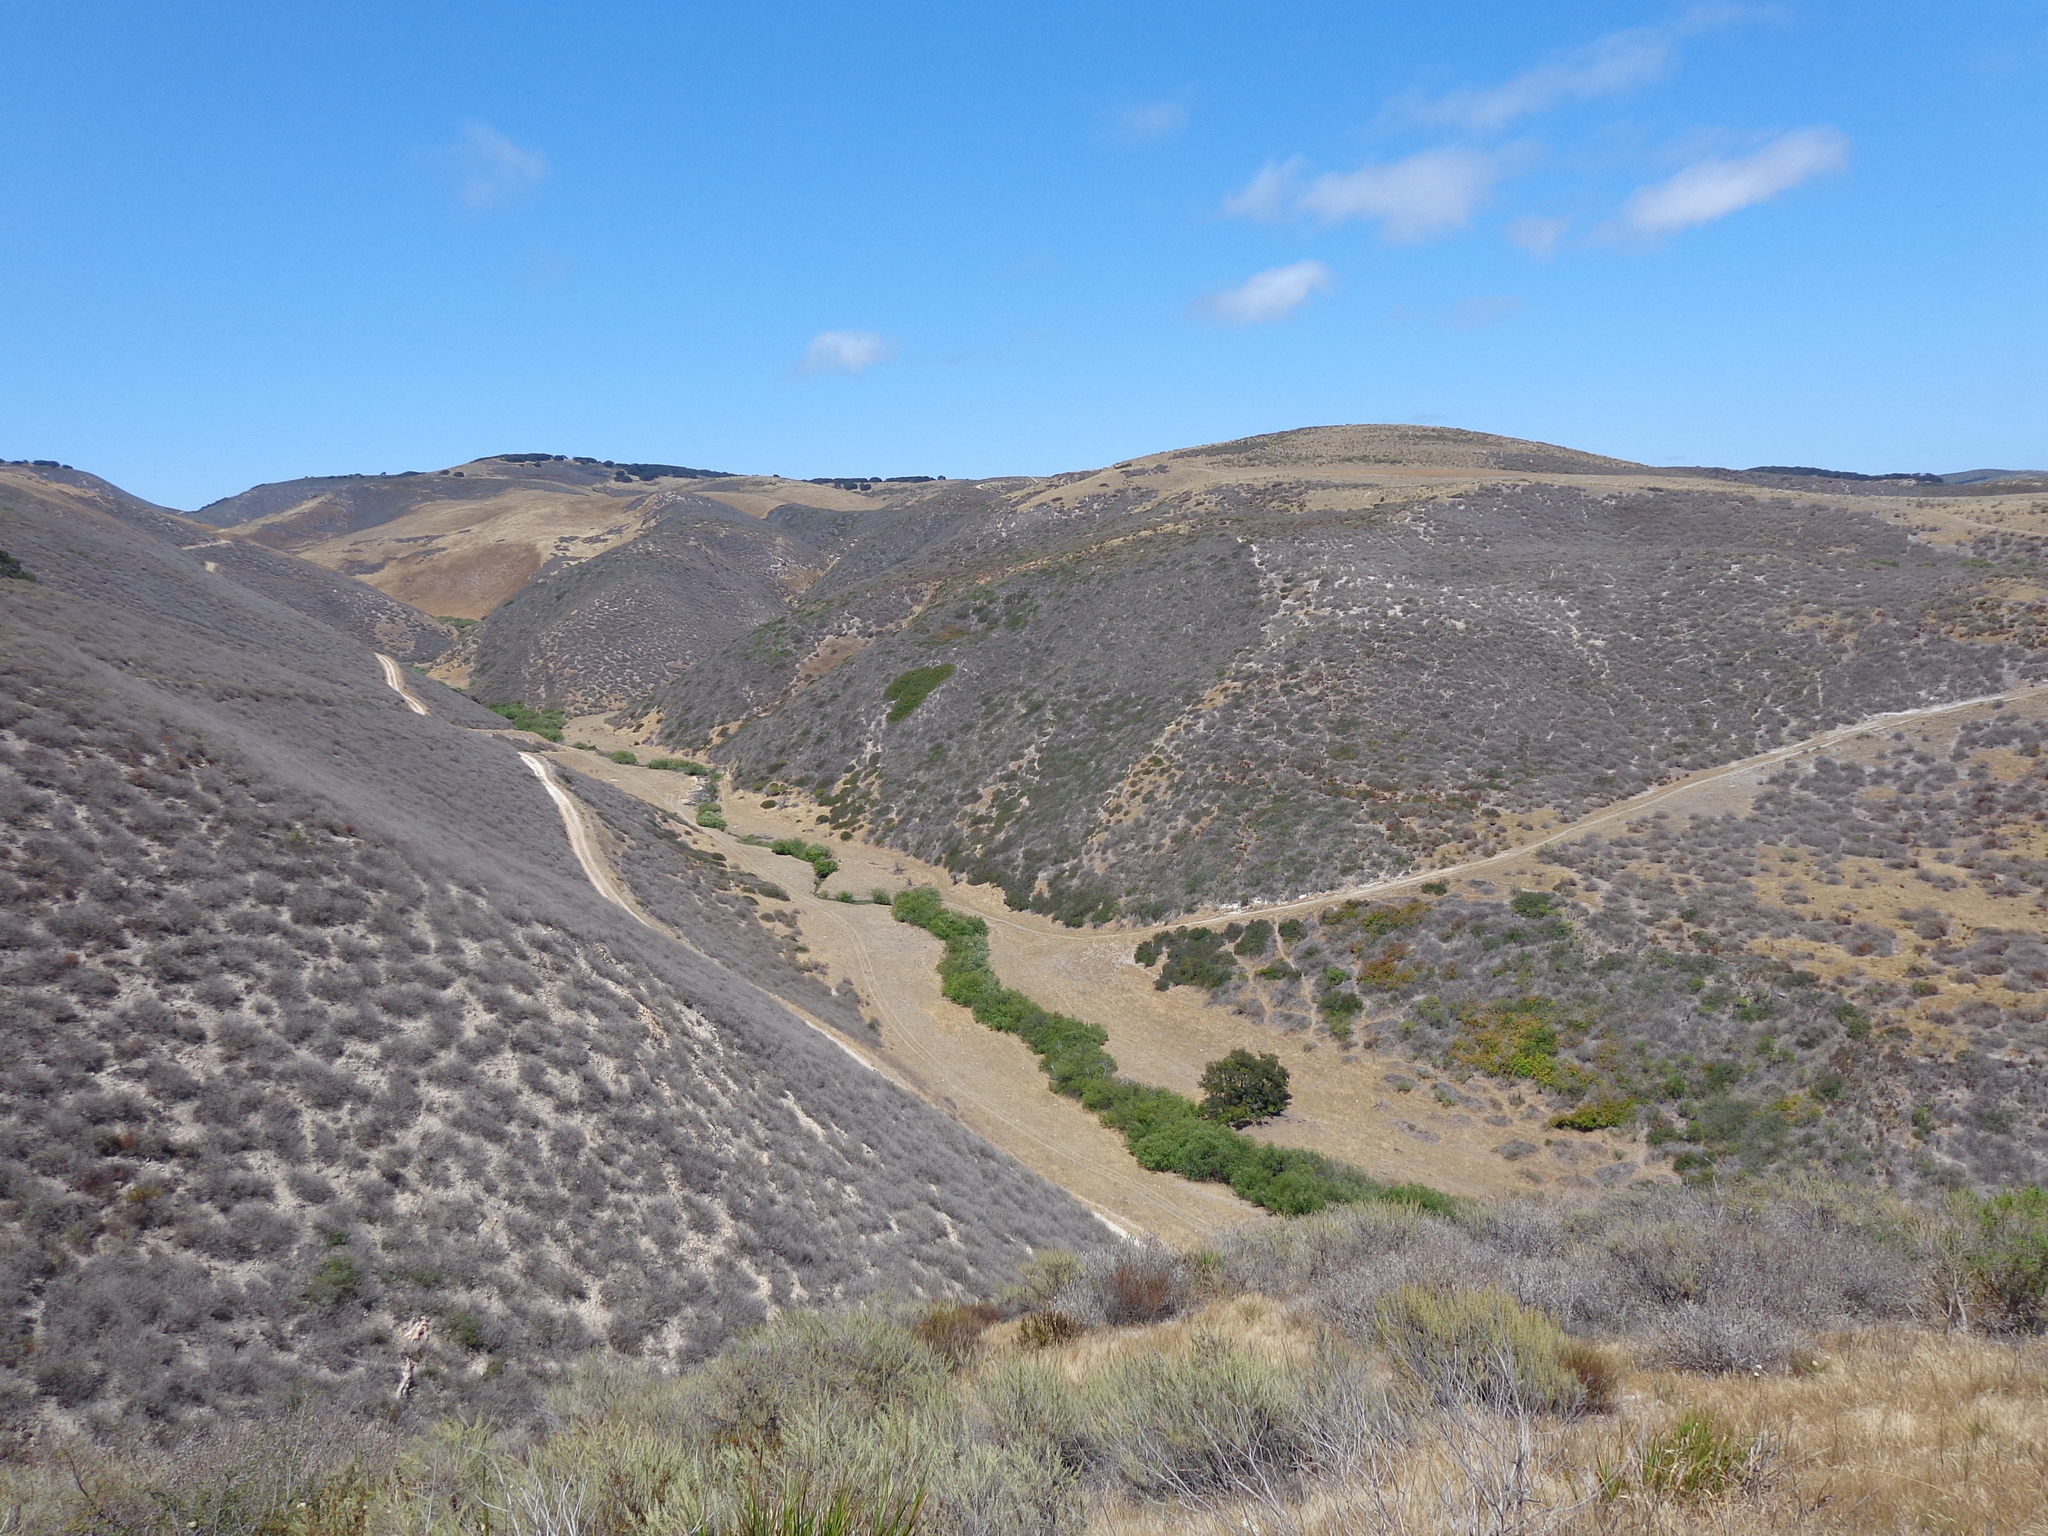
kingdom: Plantae
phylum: Tracheophyta
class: Magnoliopsida
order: Lamiales
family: Lamiaceae
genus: Salvia
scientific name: Salvia leucophylla
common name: Purple sage
